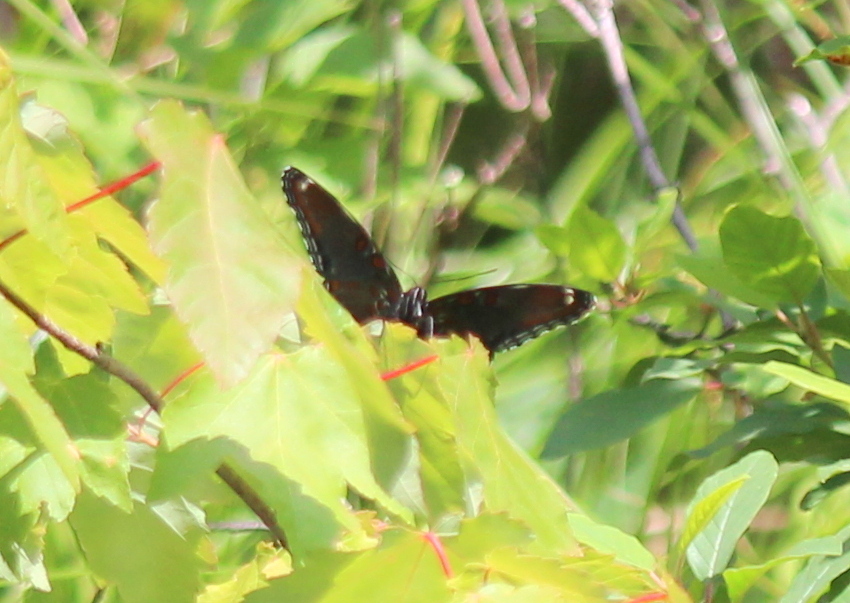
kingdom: Animalia
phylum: Arthropoda
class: Insecta
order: Lepidoptera
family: Nymphalidae
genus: Limenitis
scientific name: Limenitis astyanax
